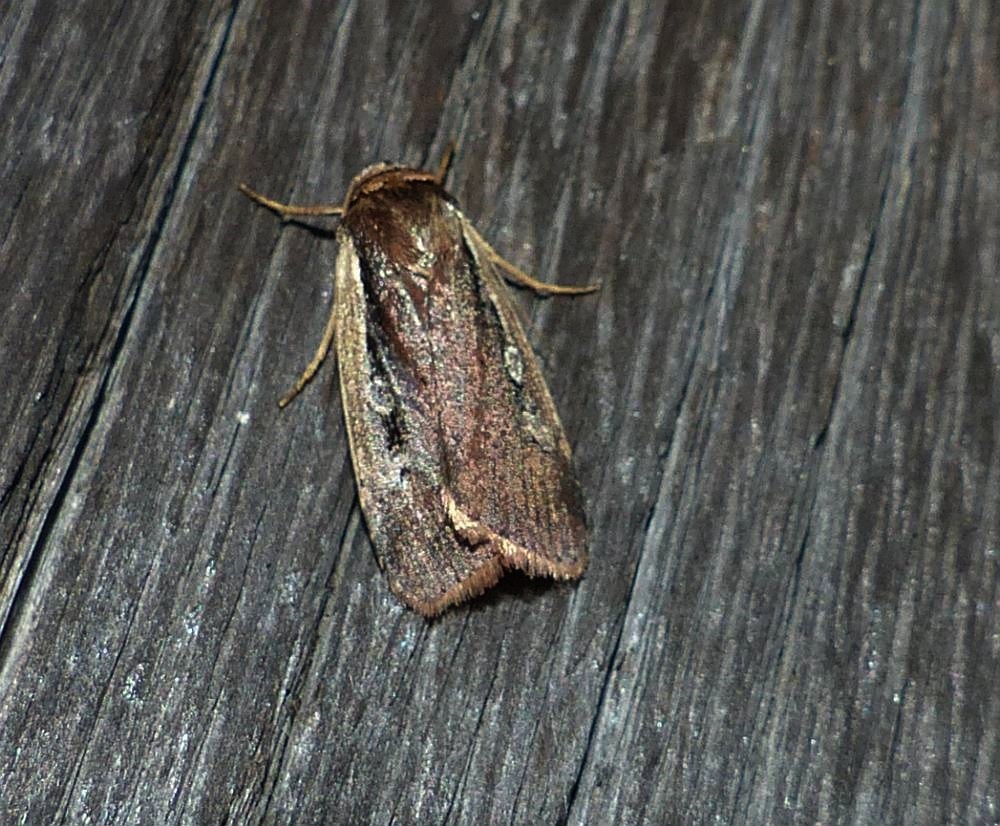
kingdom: Animalia
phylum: Arthropoda
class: Insecta
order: Lepidoptera
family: Noctuidae
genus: Ochropleura
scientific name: Ochropleura implecta
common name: Flame-shouldered dart
